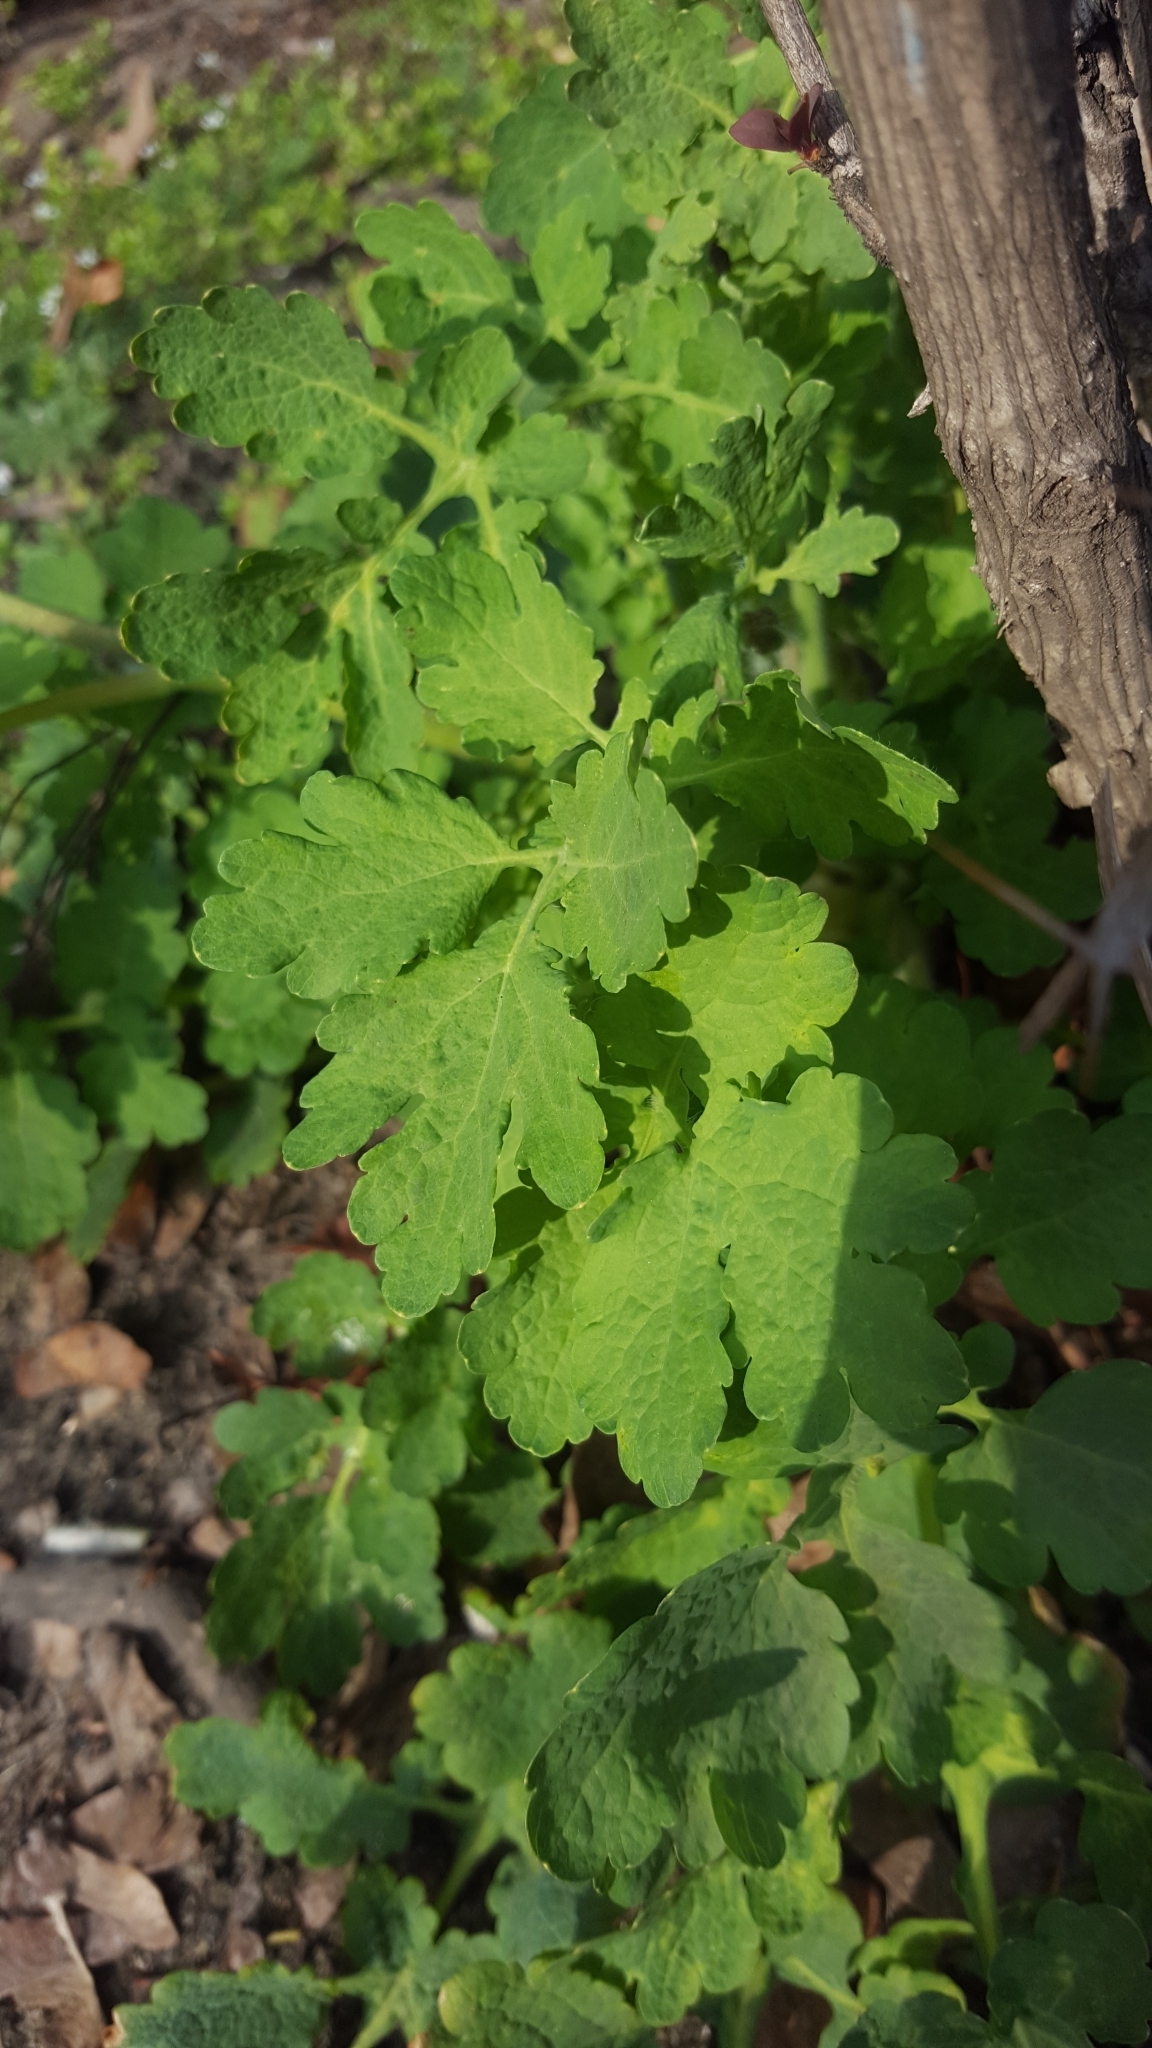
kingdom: Plantae
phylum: Tracheophyta
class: Magnoliopsida
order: Ranunculales
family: Papaveraceae
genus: Chelidonium
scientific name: Chelidonium majus
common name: Greater celandine
